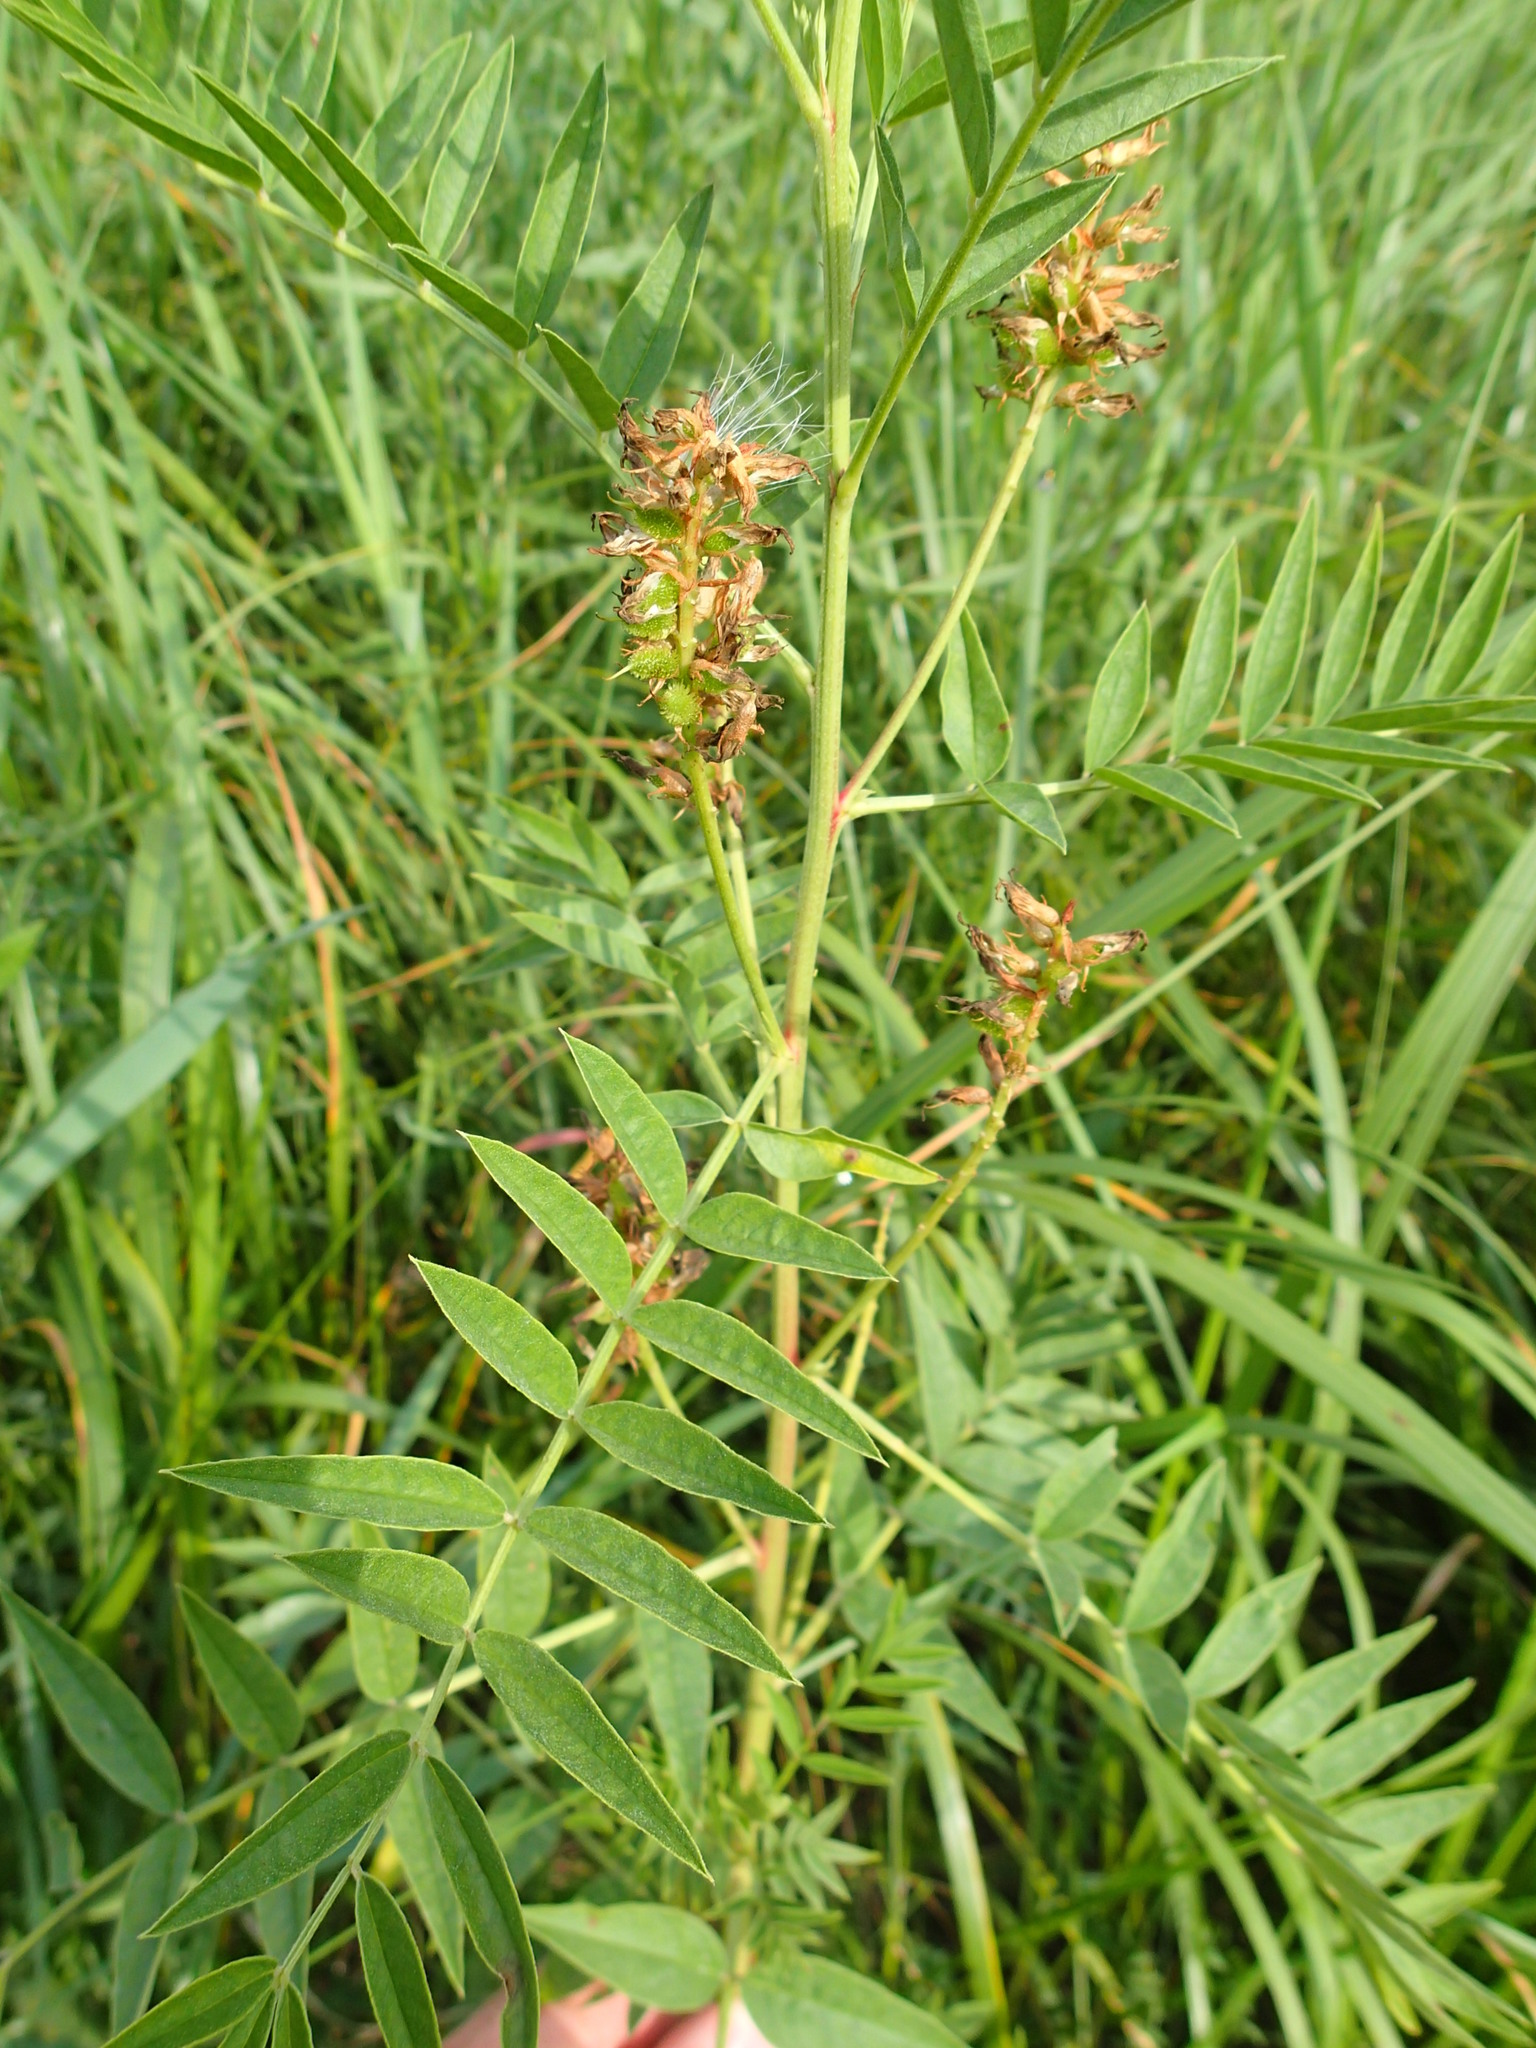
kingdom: Plantae
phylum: Tracheophyta
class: Magnoliopsida
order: Fabales
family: Fabaceae
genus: Glycyrrhiza
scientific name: Glycyrrhiza lepidota
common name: American liquorice
